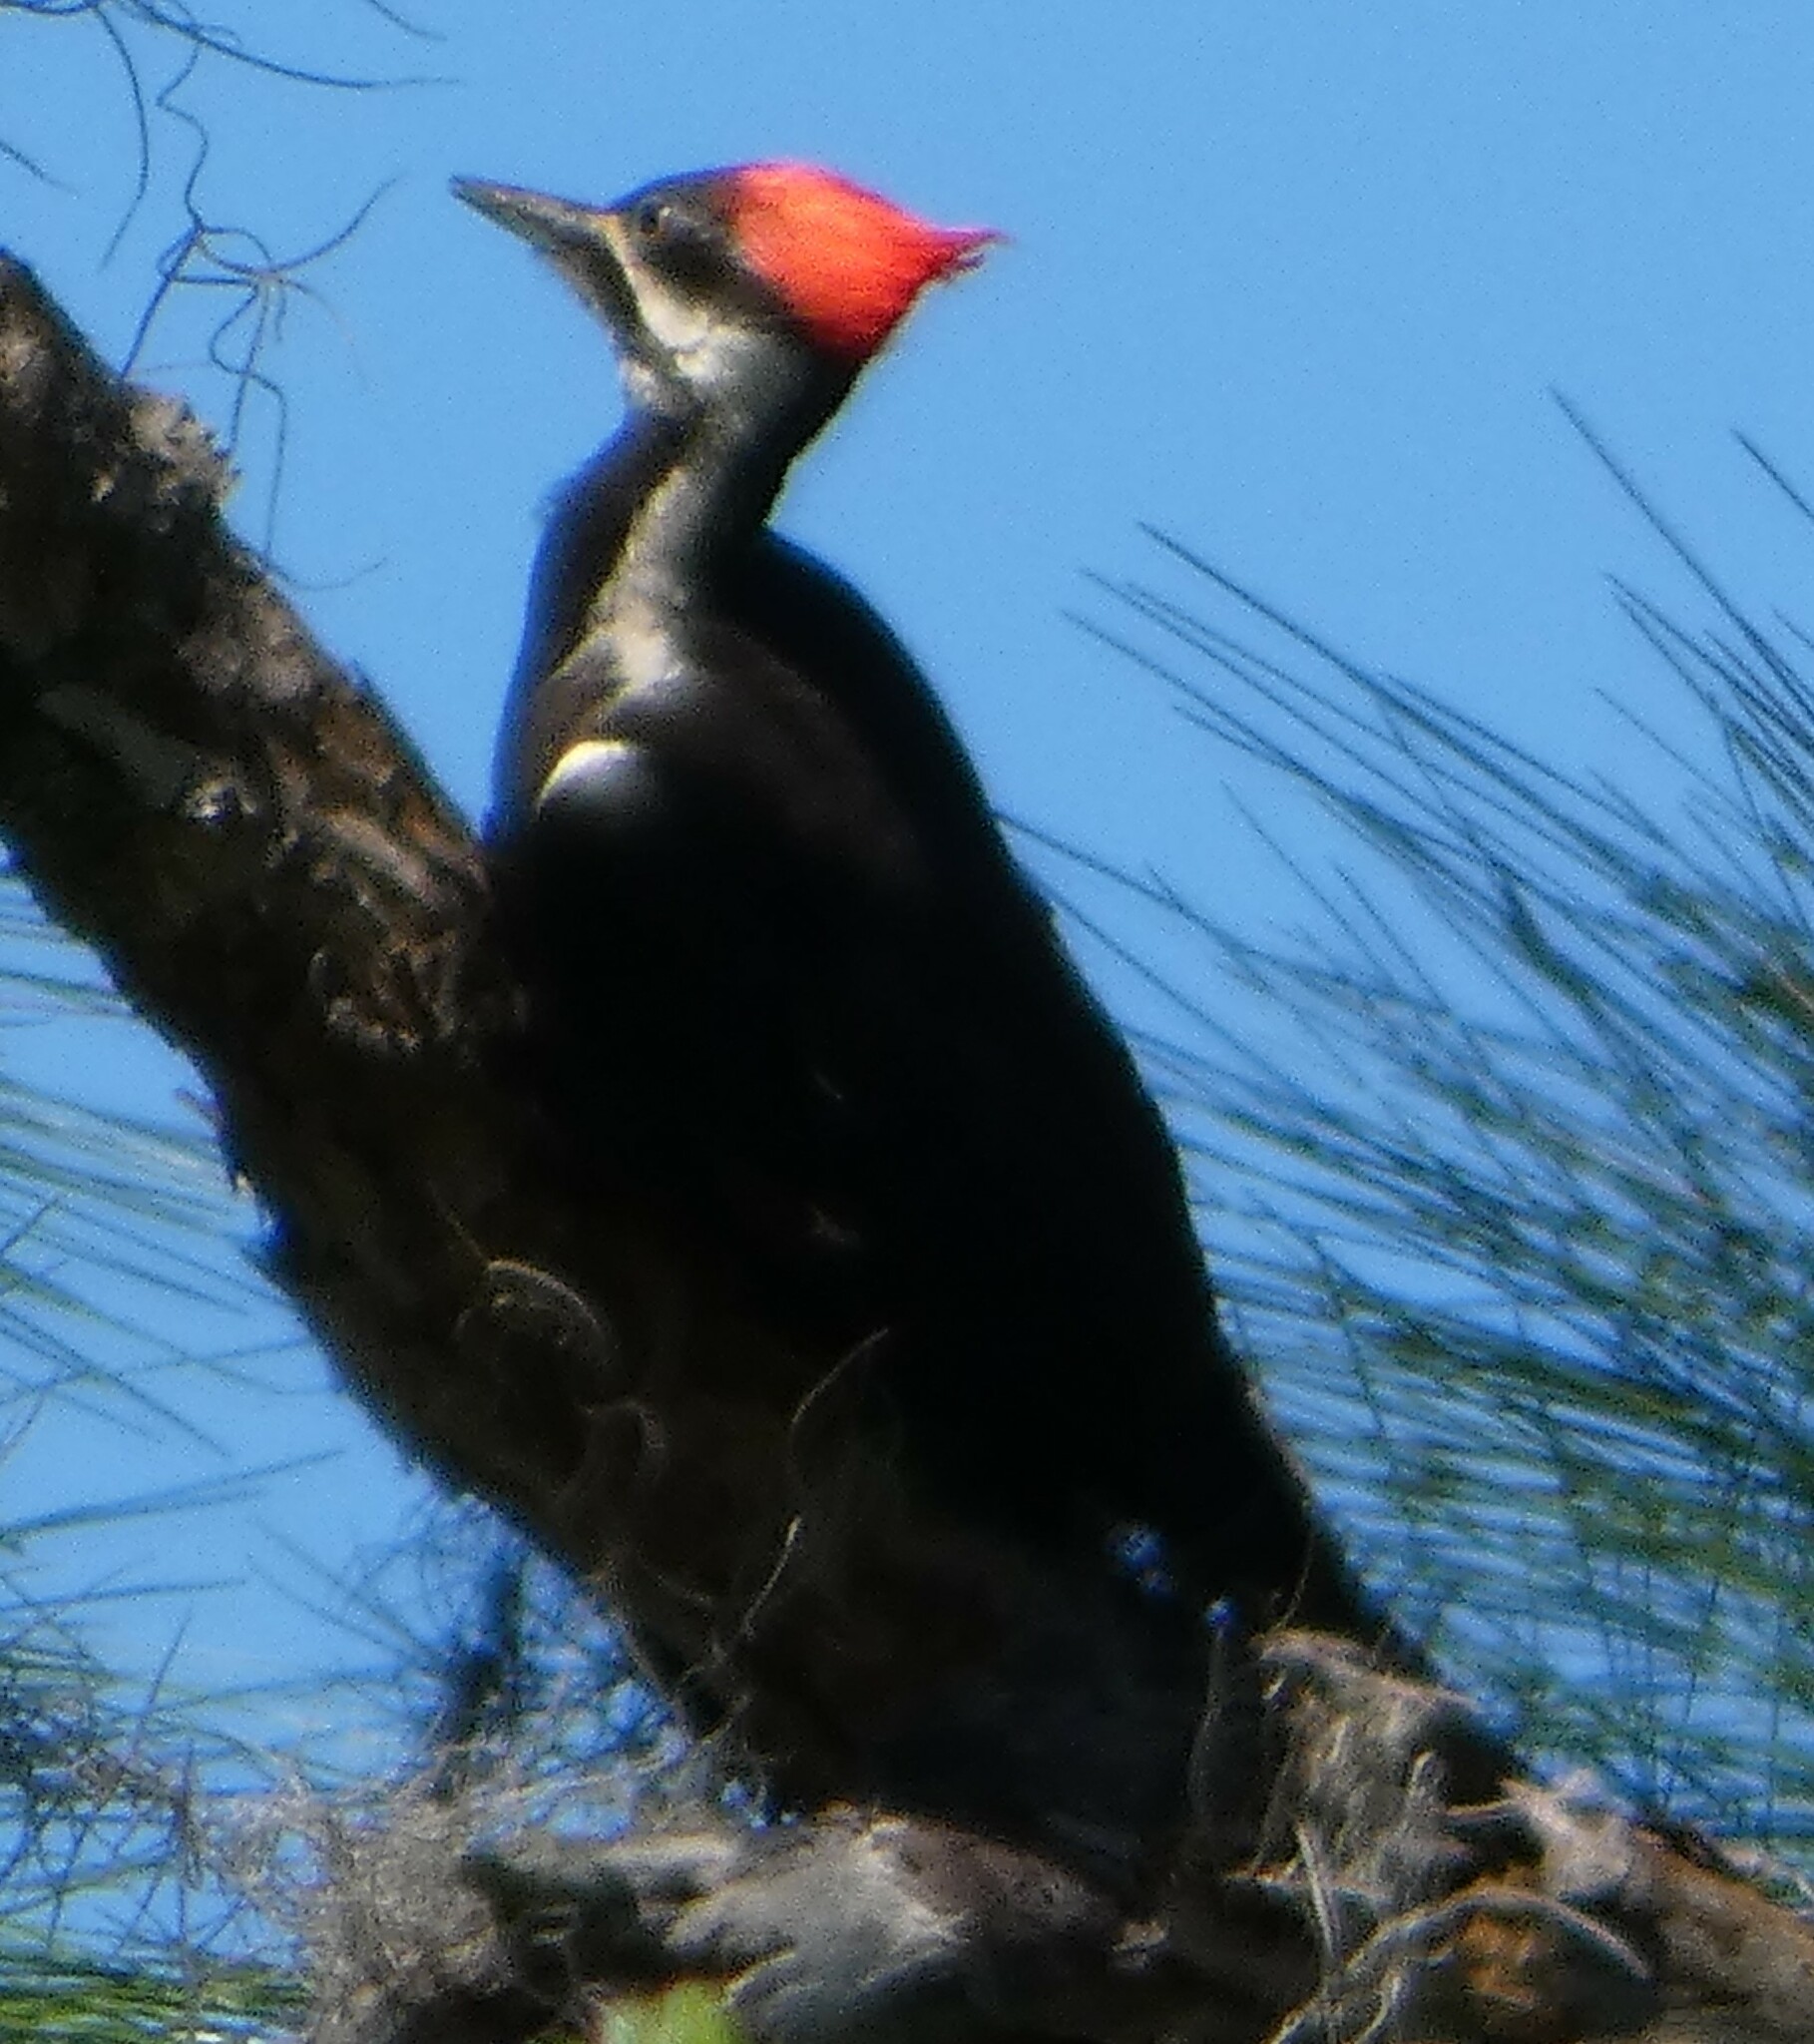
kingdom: Animalia
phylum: Chordata
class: Aves
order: Piciformes
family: Picidae
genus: Dryocopus
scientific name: Dryocopus pileatus
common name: Pileated woodpecker
